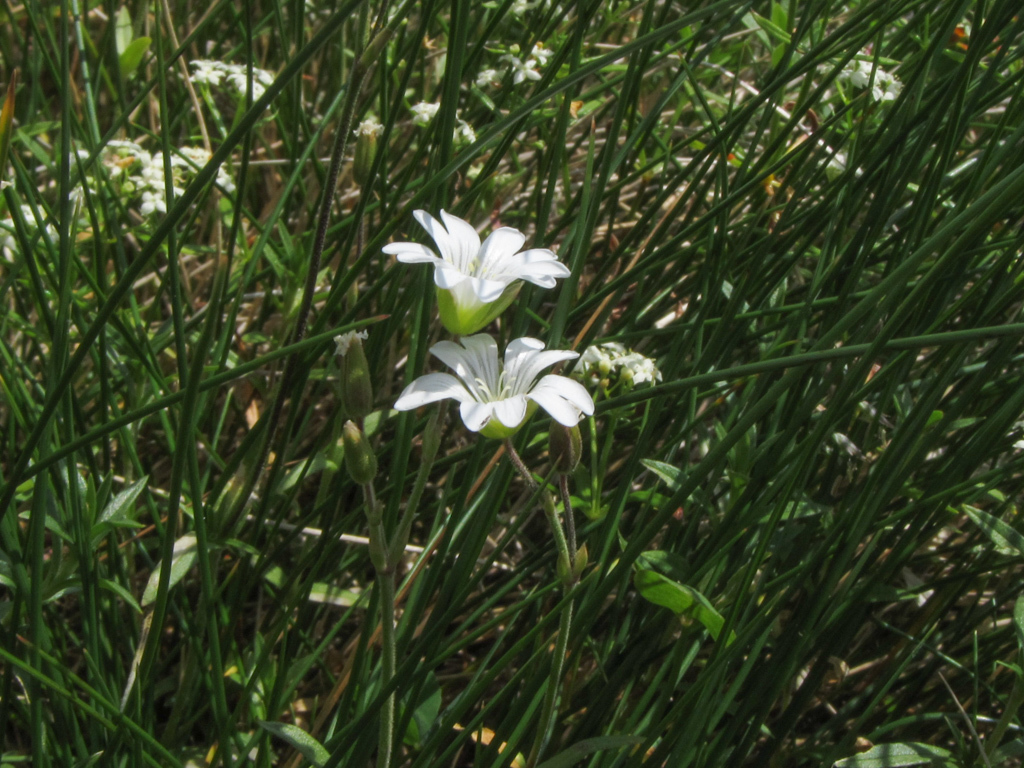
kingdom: Plantae
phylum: Tracheophyta
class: Magnoliopsida
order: Caryophyllales
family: Caryophyllaceae
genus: Cerastium
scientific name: Cerastium arvense
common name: Field mouse-ear
